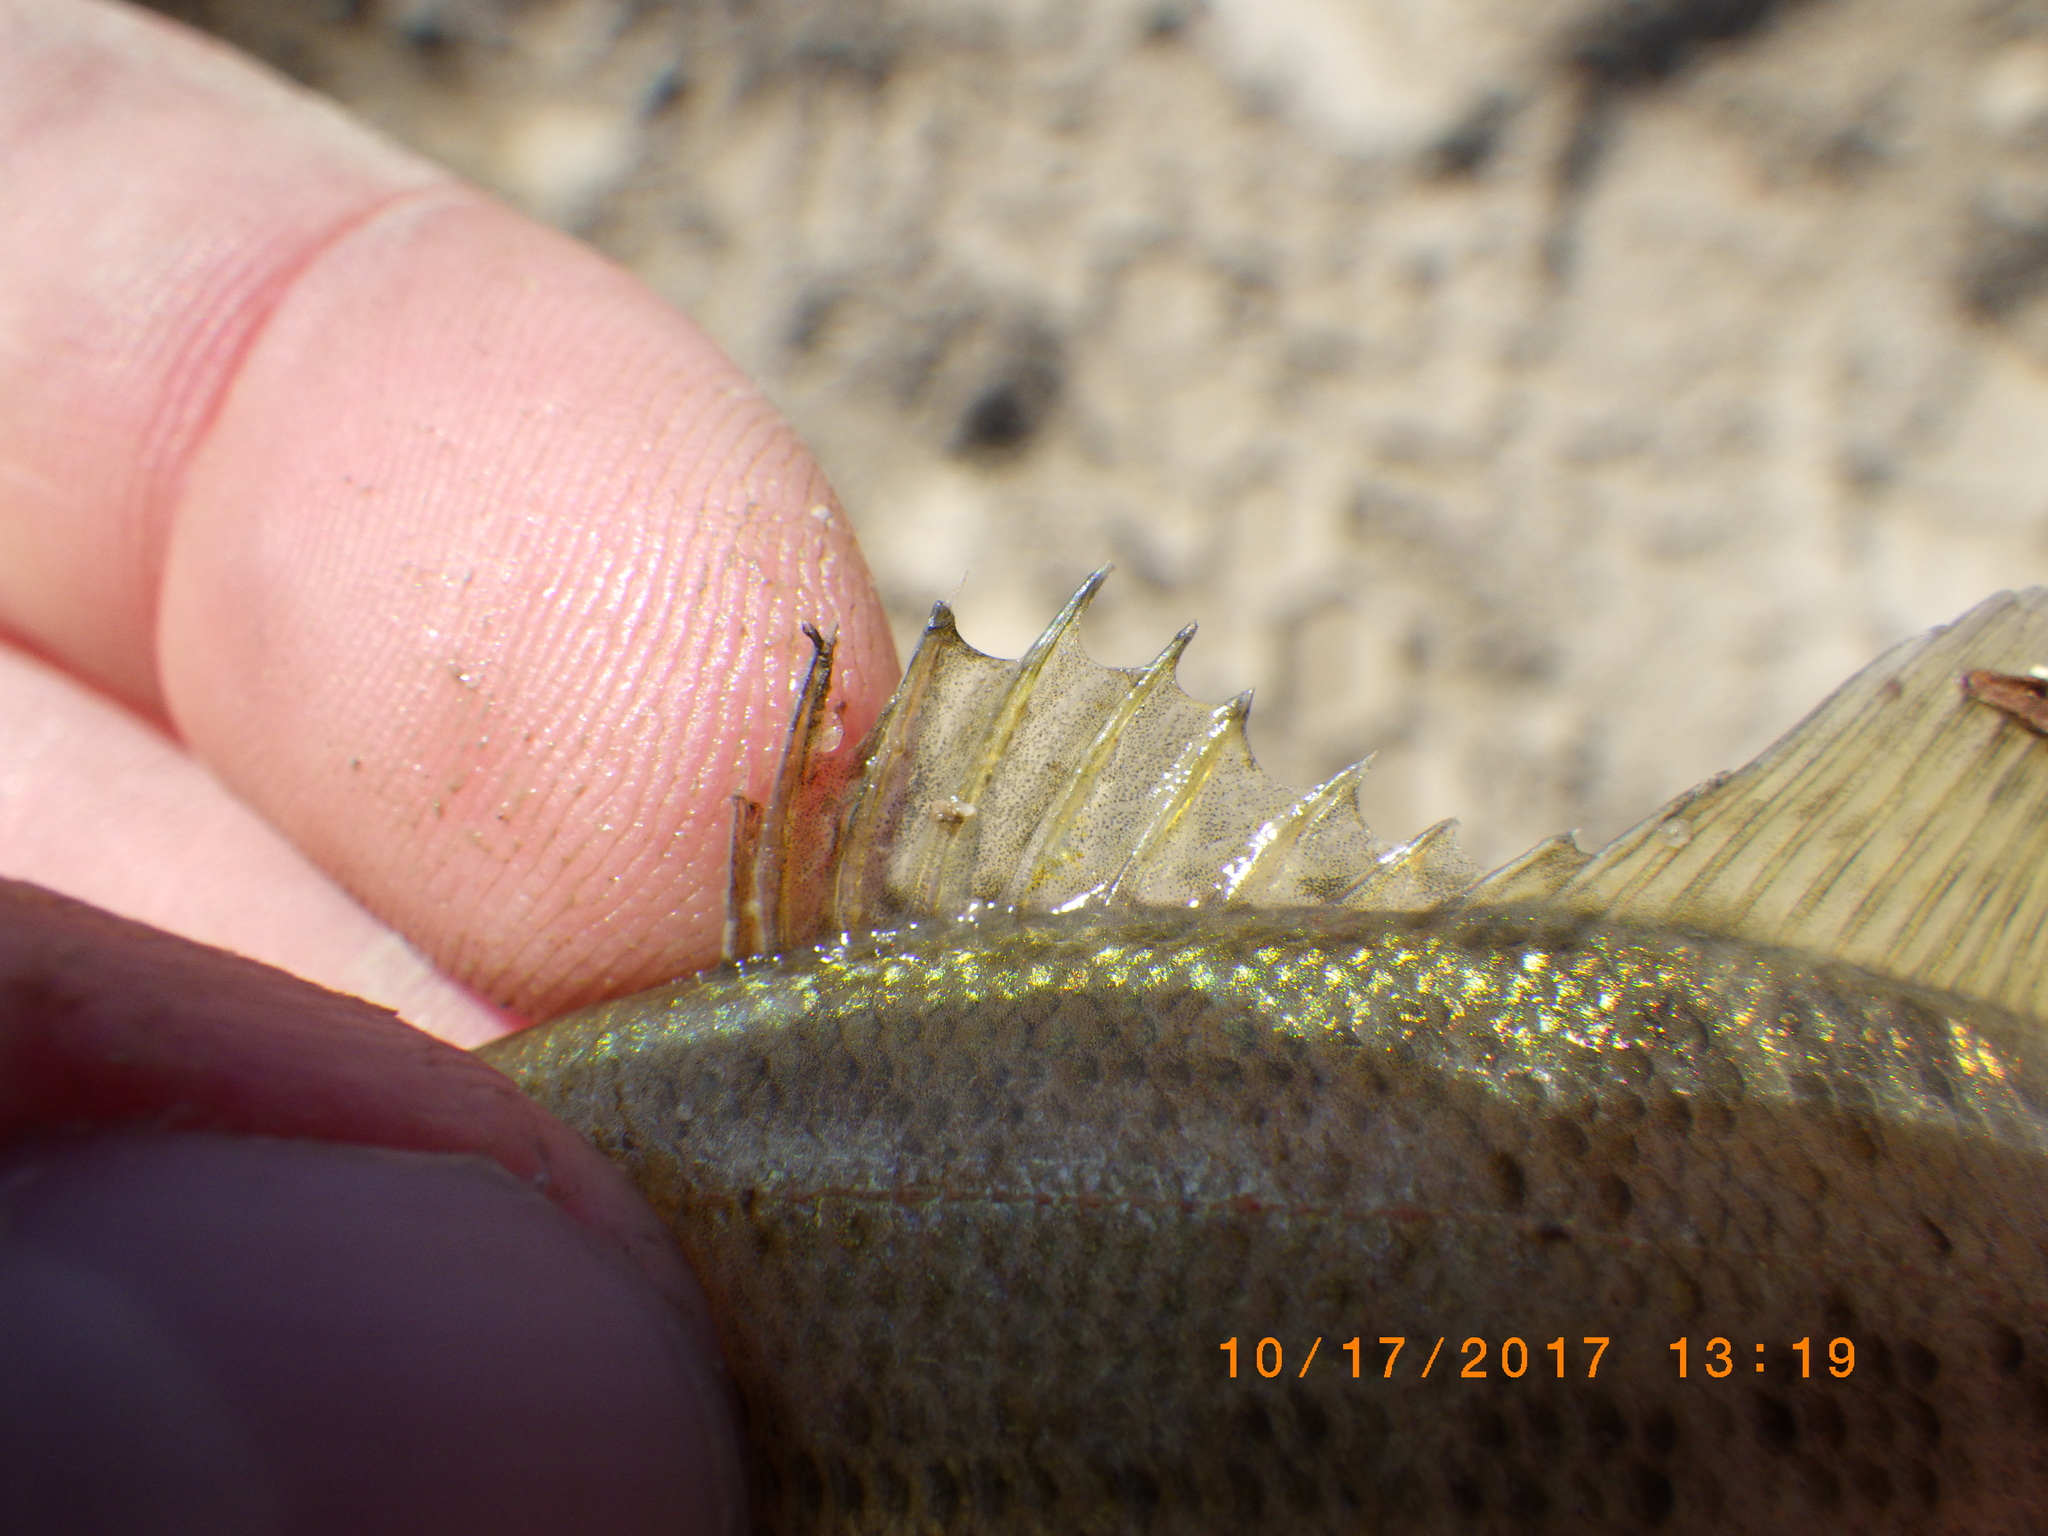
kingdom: Animalia
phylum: Chordata
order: Perciformes
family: Centrarchidae
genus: Micropterus
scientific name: Micropterus
